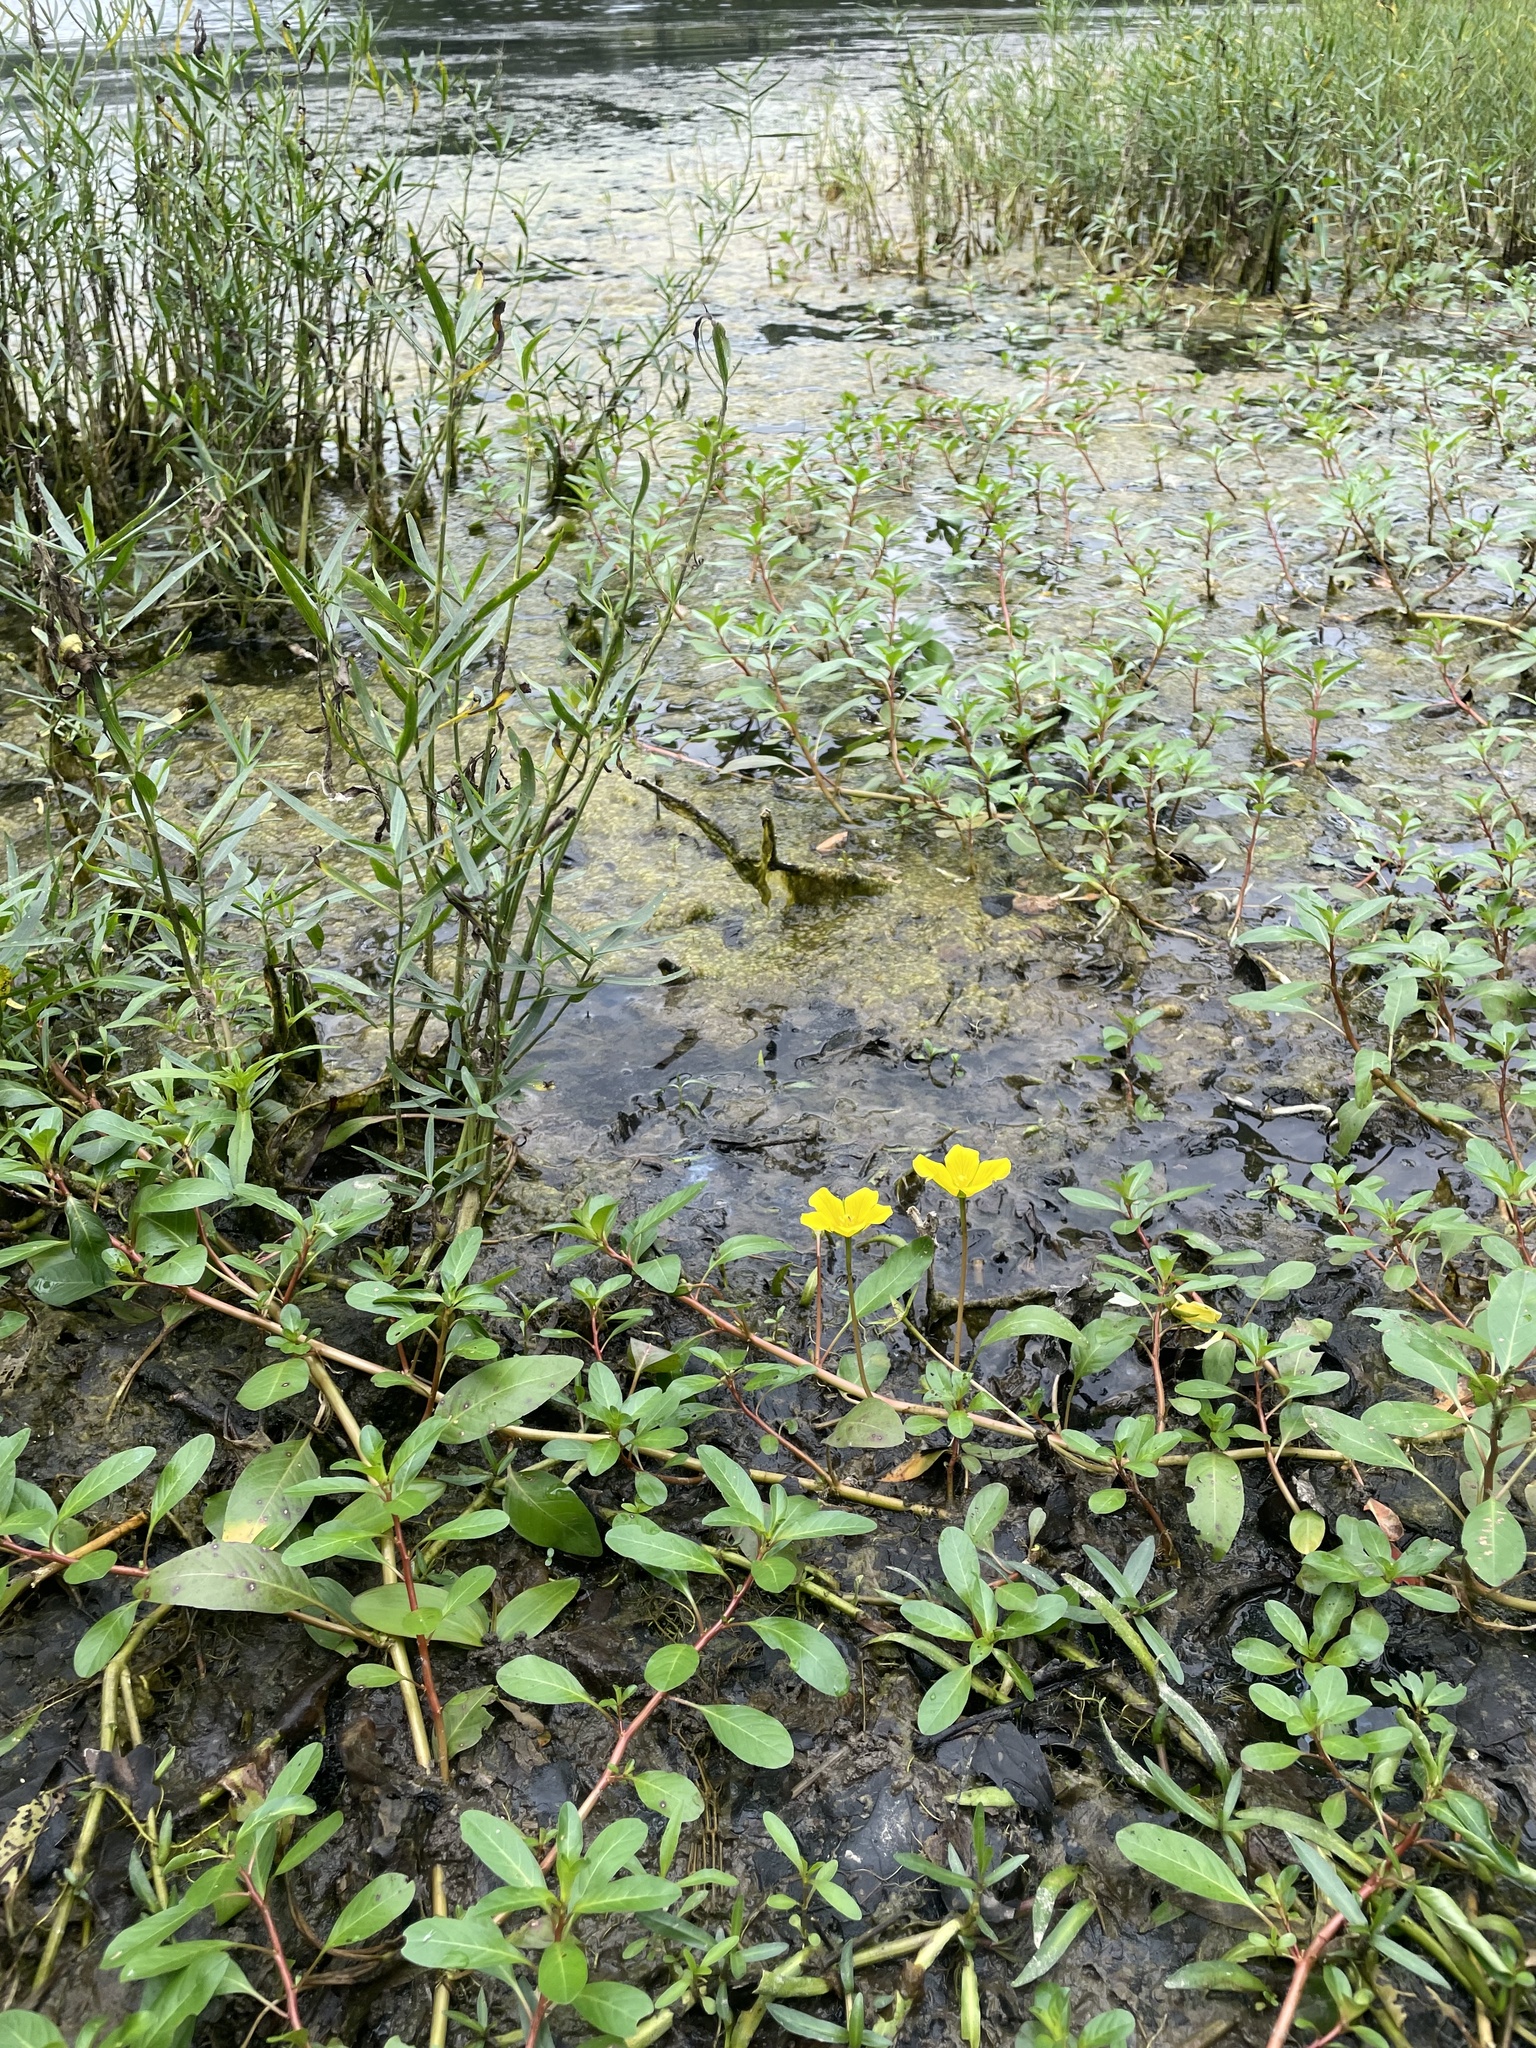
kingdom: Plantae
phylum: Tracheophyta
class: Magnoliopsida
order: Myrtales
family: Onagraceae
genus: Ludwigia
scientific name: Ludwigia peploides
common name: Floating primrose-willow
